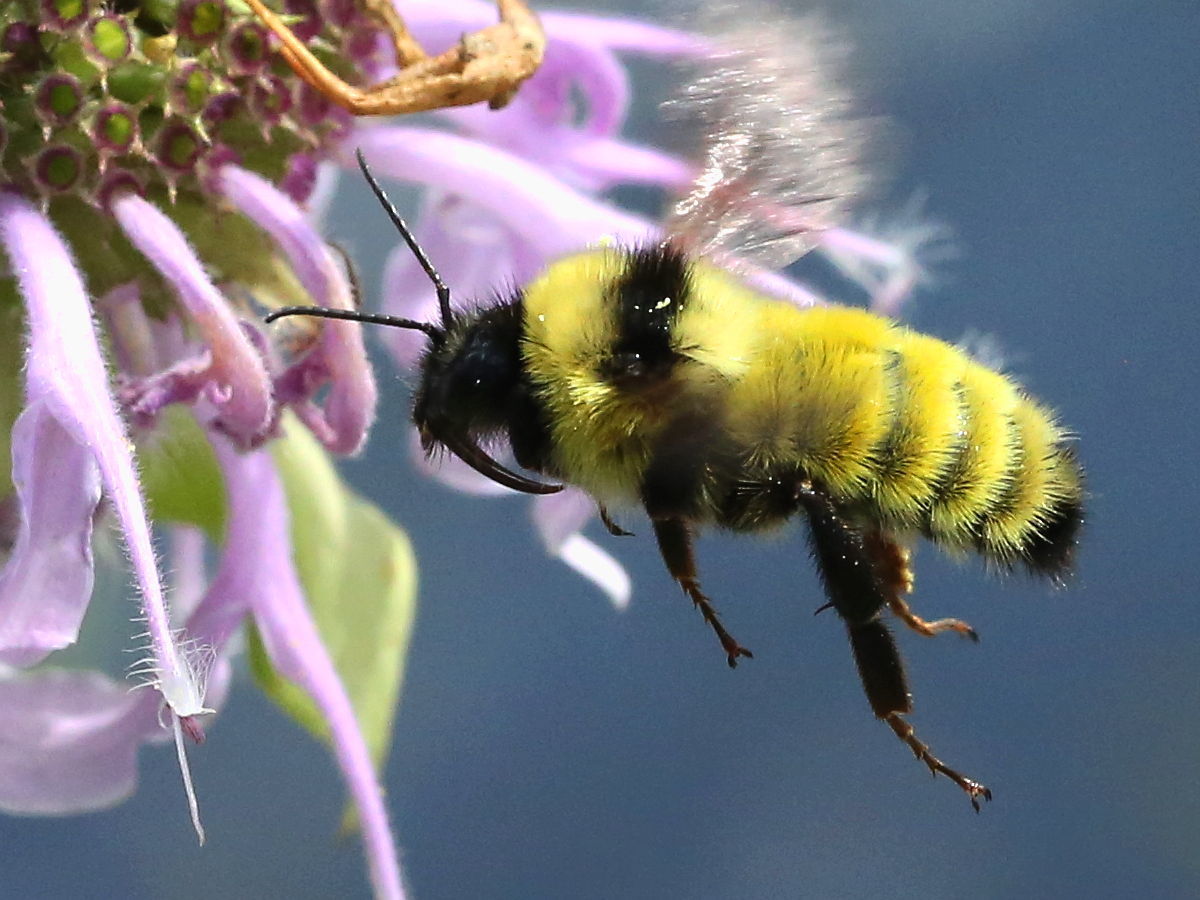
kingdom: Animalia
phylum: Arthropoda
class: Insecta
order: Hymenoptera
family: Apidae
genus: Bombus
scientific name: Bombus fervidus
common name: Yellow bumble bee
